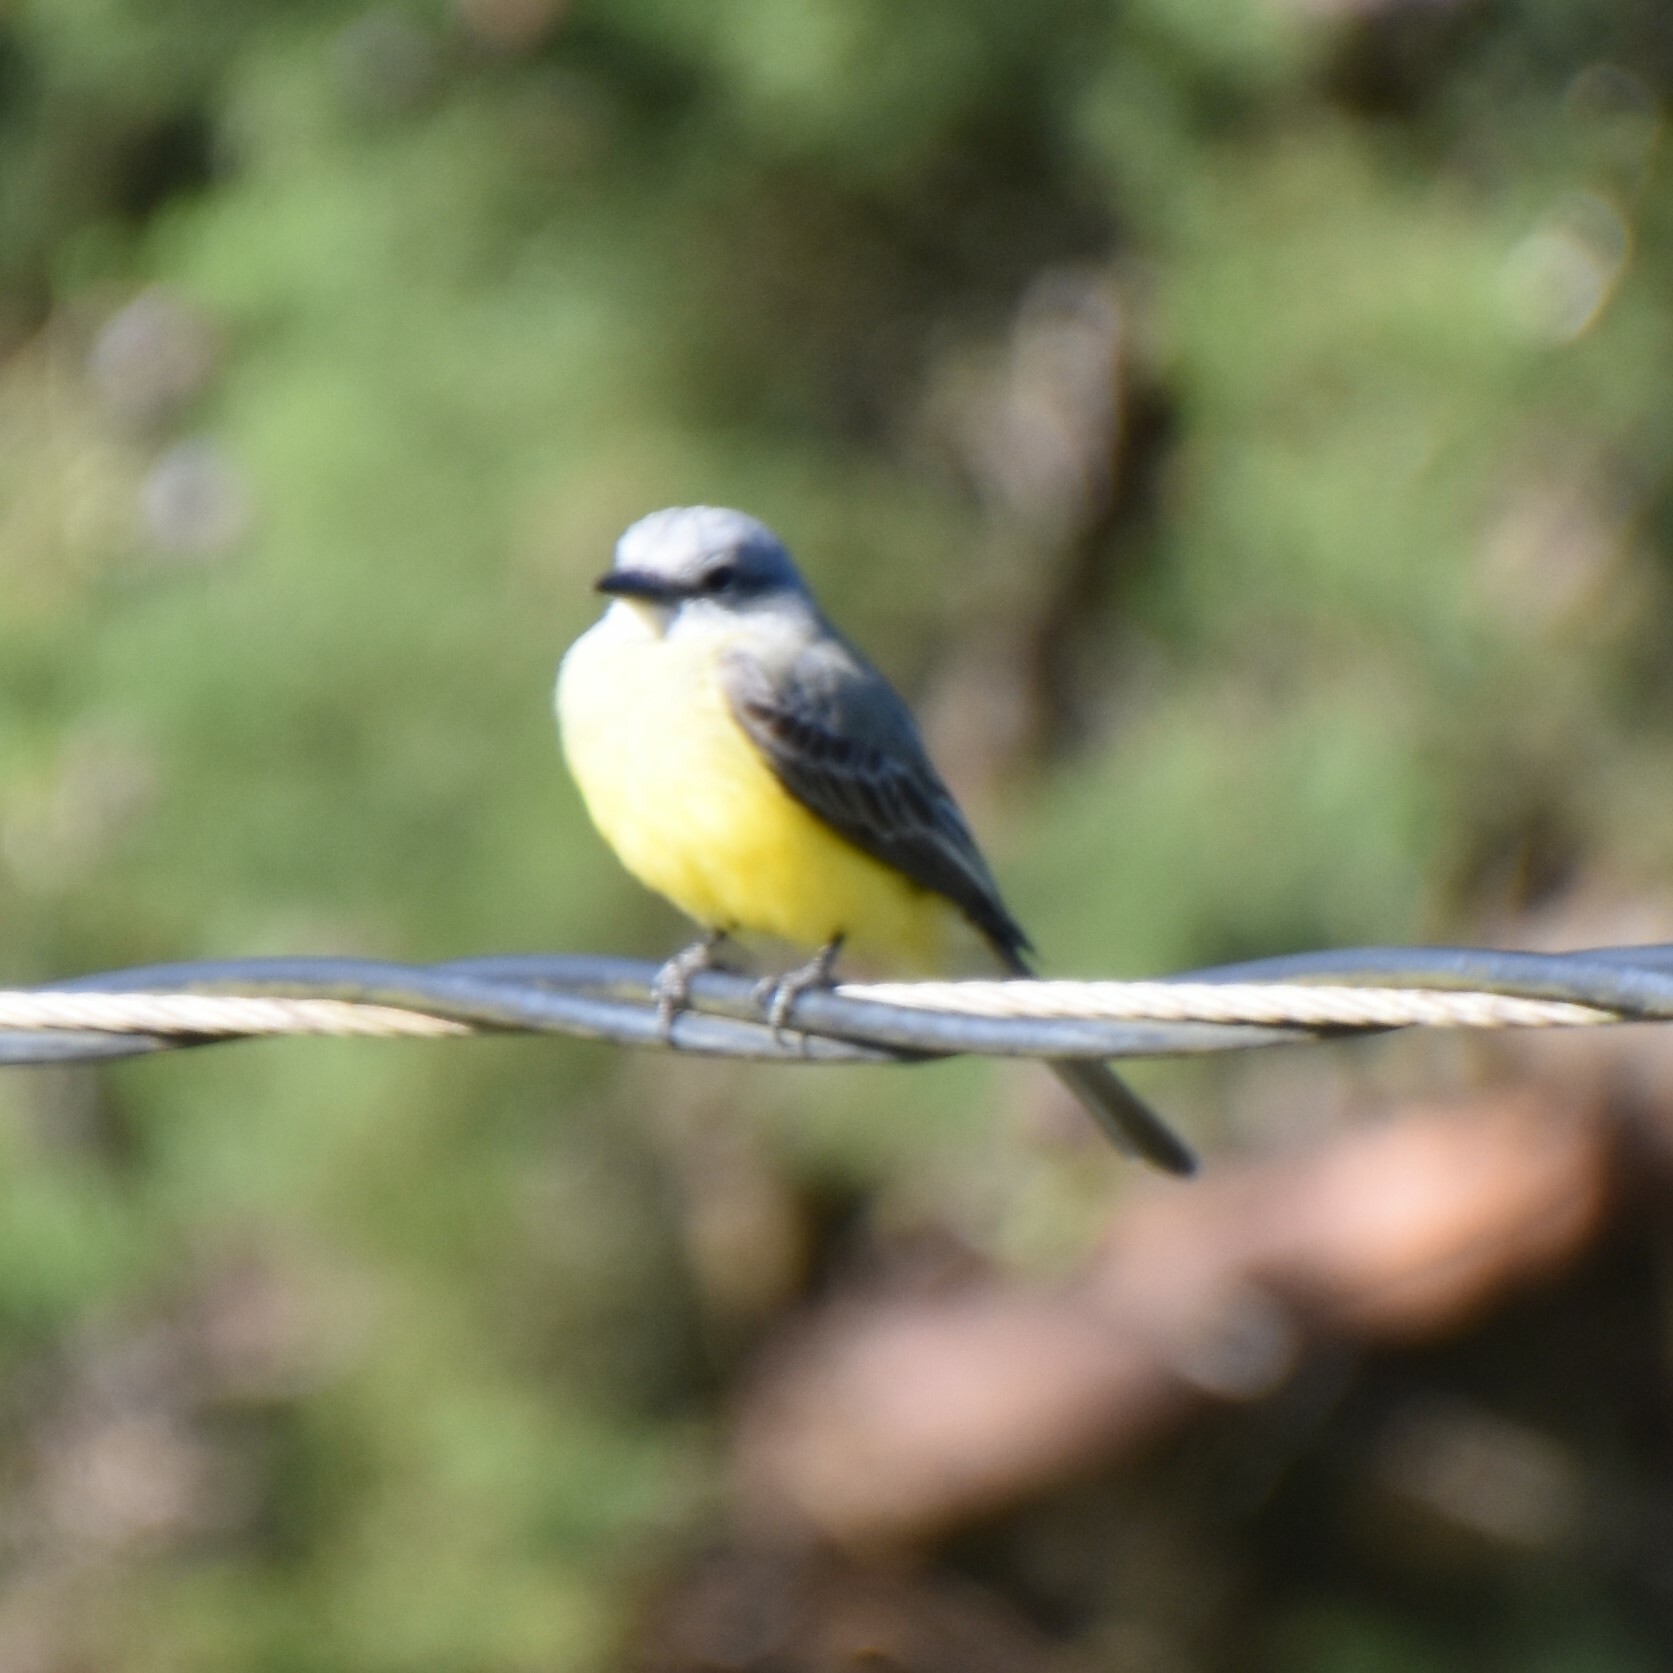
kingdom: Animalia
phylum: Chordata
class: Aves
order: Passeriformes
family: Tyrannidae
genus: Tyrannus
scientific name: Tyrannus melancholicus
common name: Tropical kingbird
